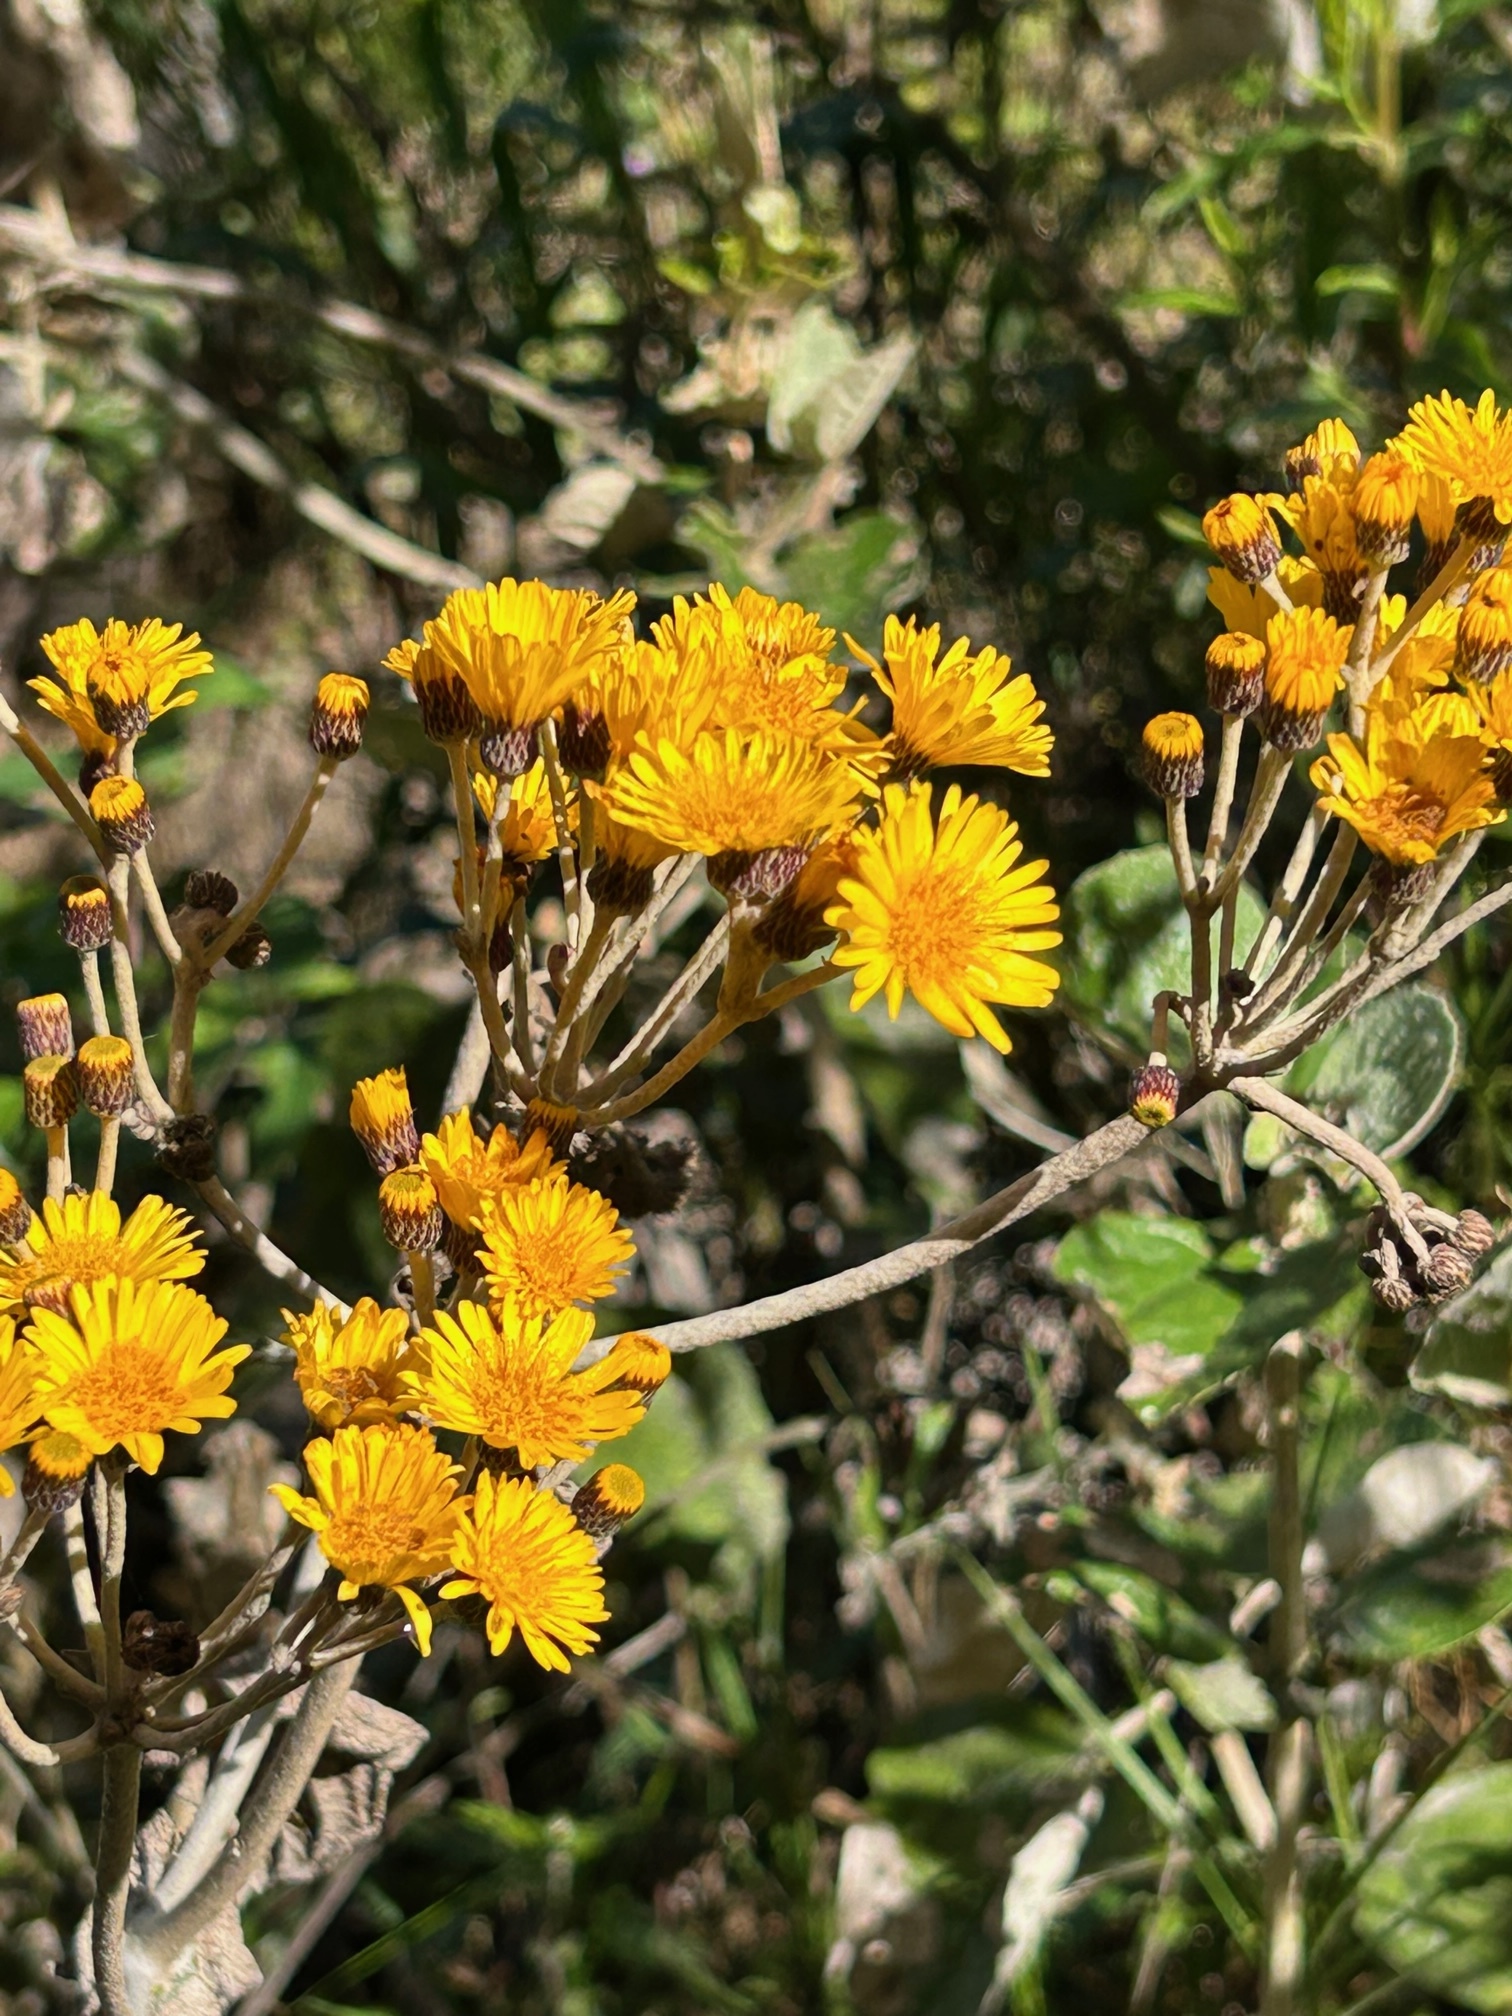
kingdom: Plantae
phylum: Tracheophyta
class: Magnoliopsida
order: Asterales
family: Asteraceae
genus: Liabum
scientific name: Liabum igniarium
